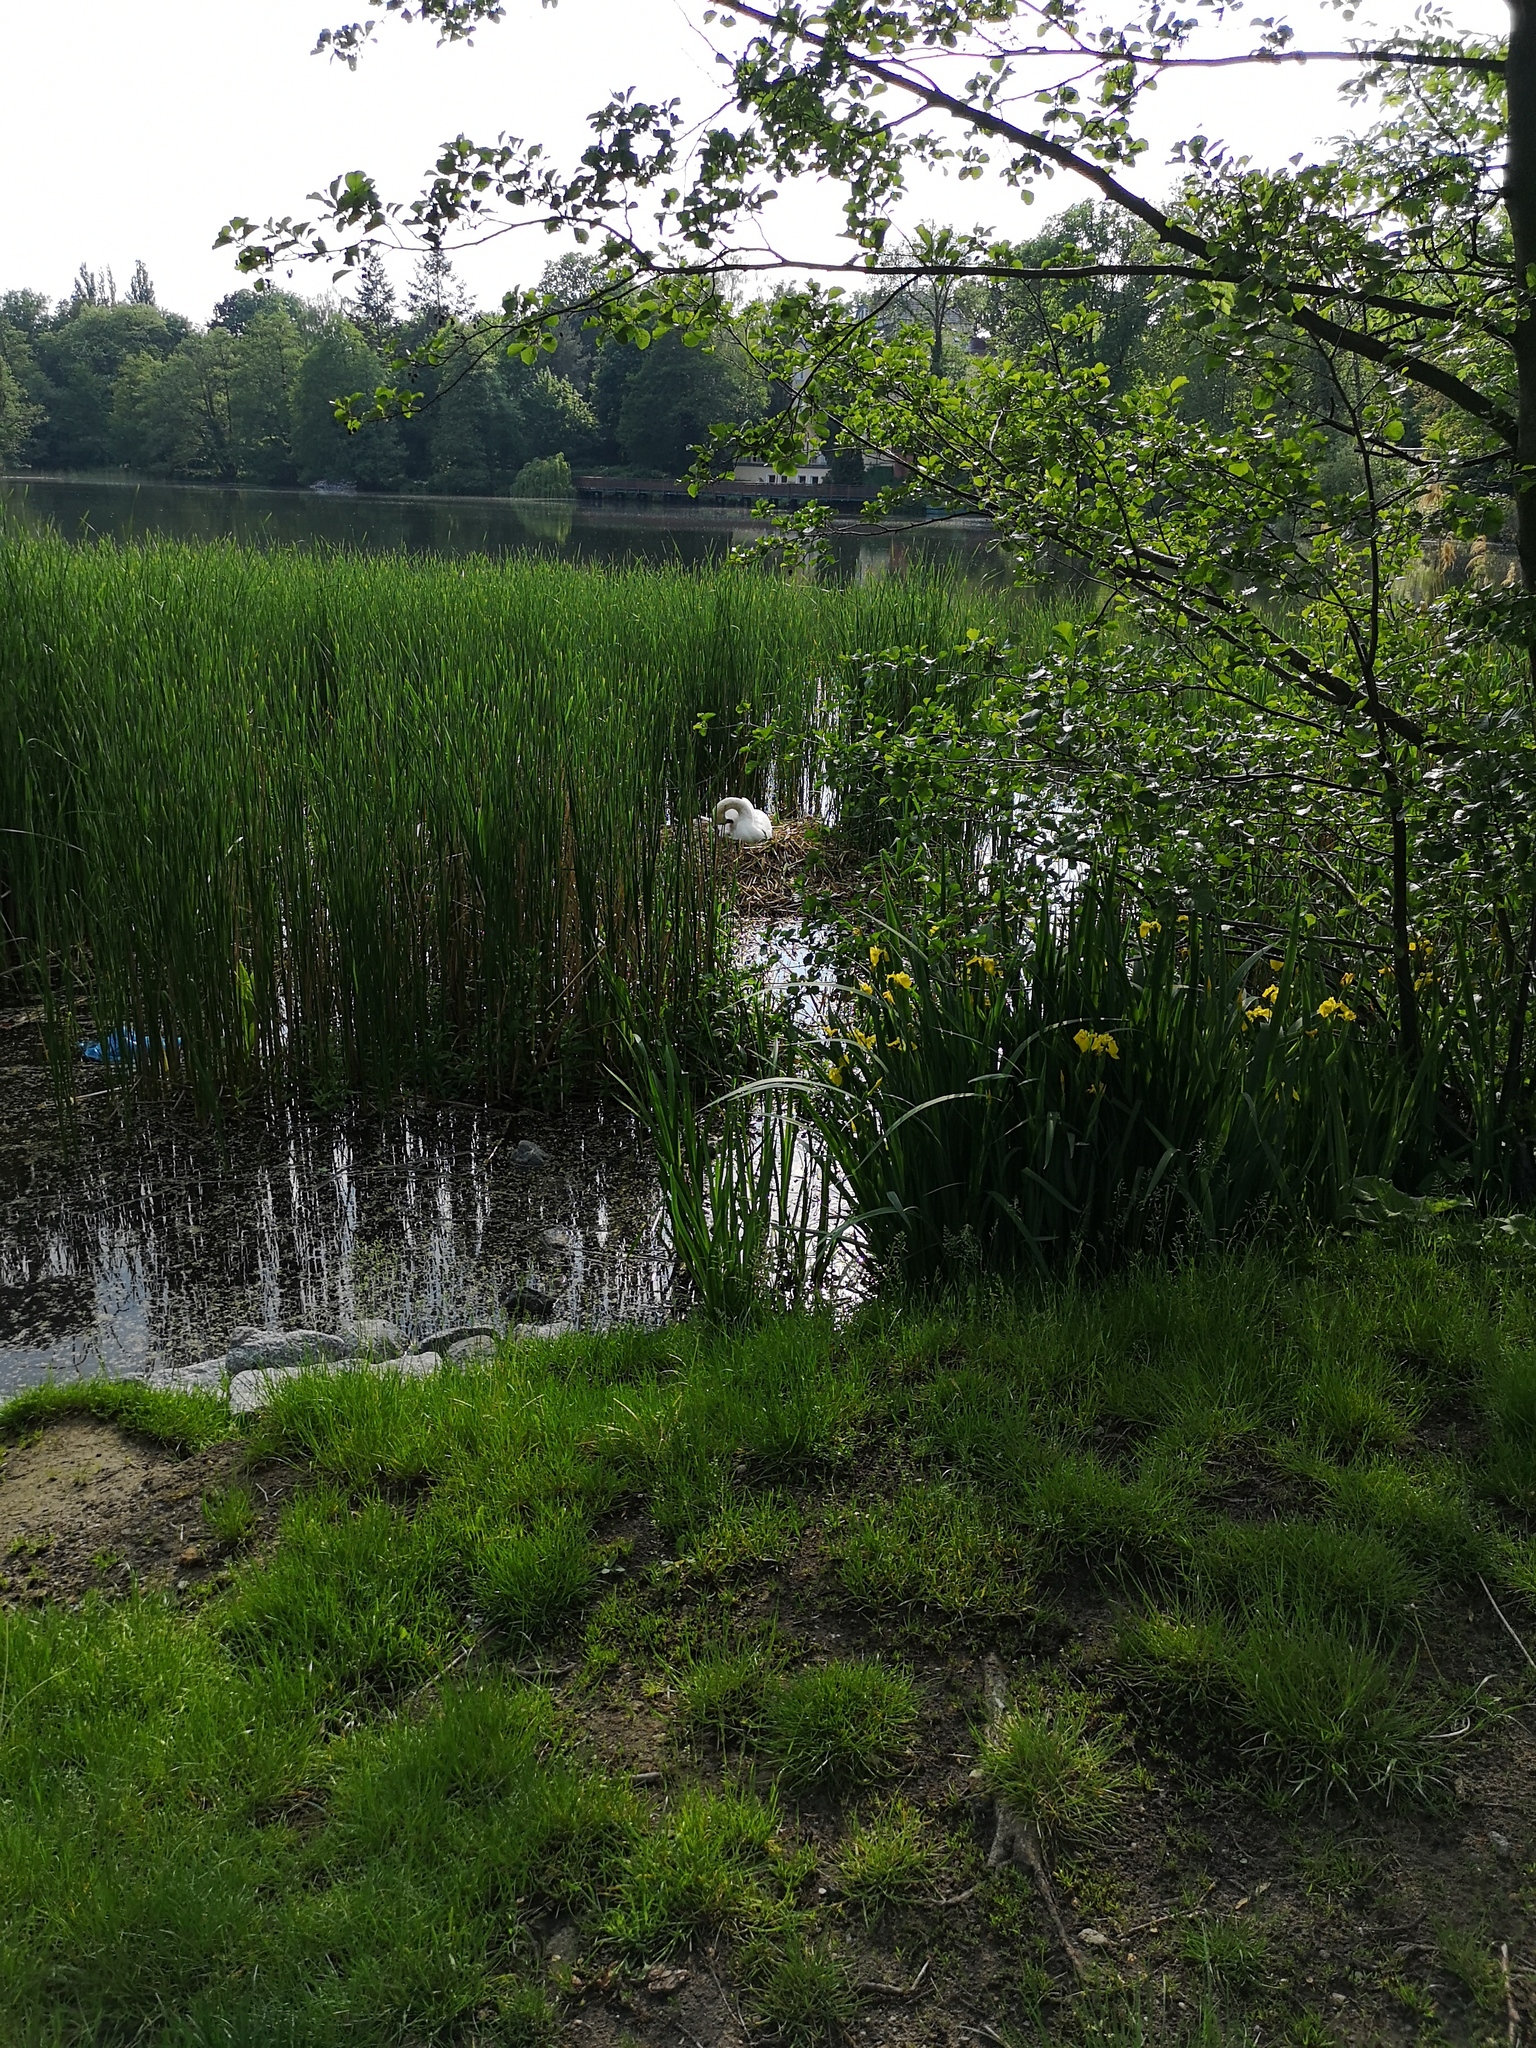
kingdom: Animalia
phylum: Chordata
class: Aves
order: Anseriformes
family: Anatidae
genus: Cygnus
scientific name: Cygnus olor
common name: Mute swan
